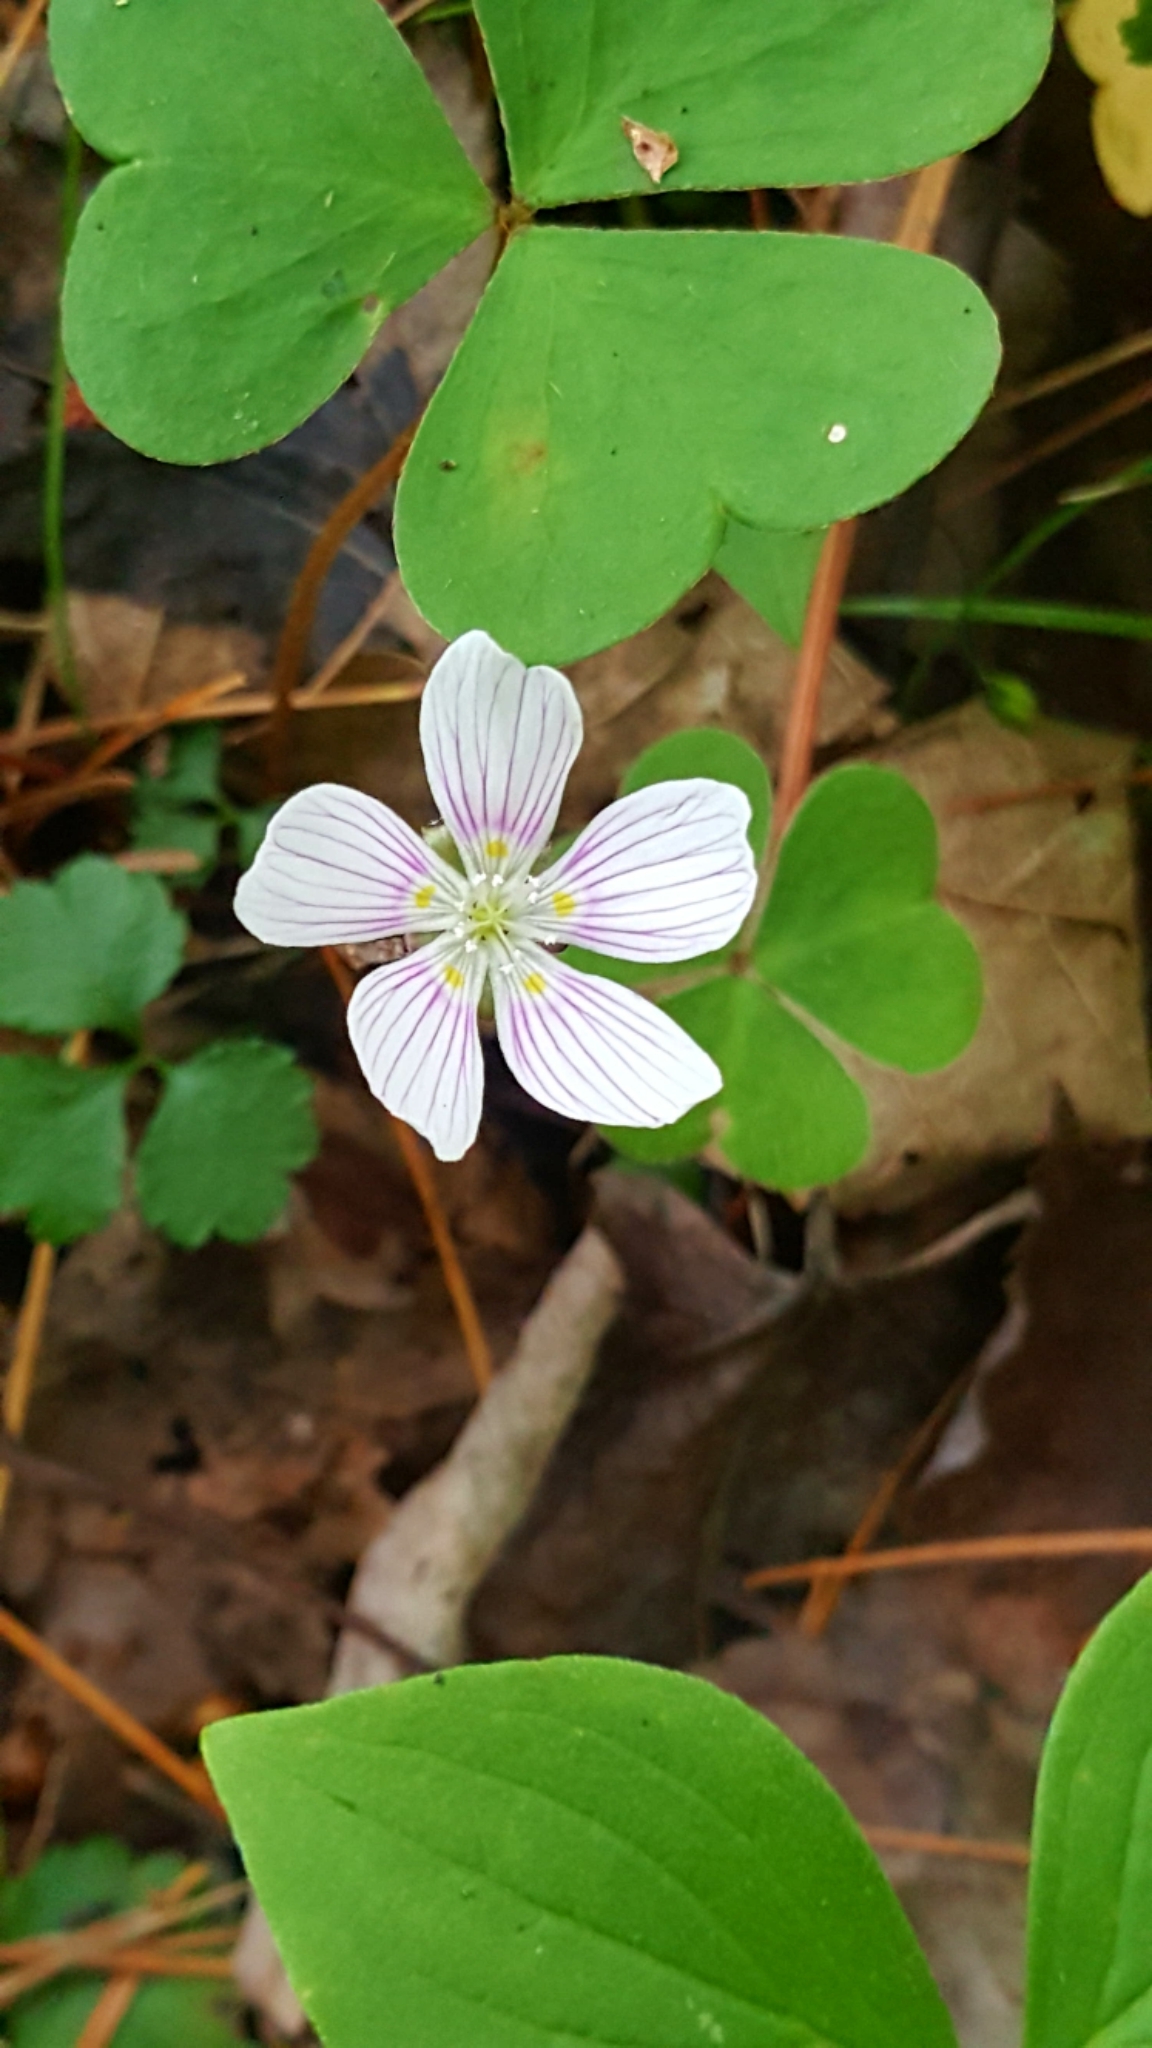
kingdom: Plantae
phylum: Tracheophyta
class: Magnoliopsida
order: Oxalidales
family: Oxalidaceae
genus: Oxalis
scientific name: Oxalis montana
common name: American wood-sorrel
